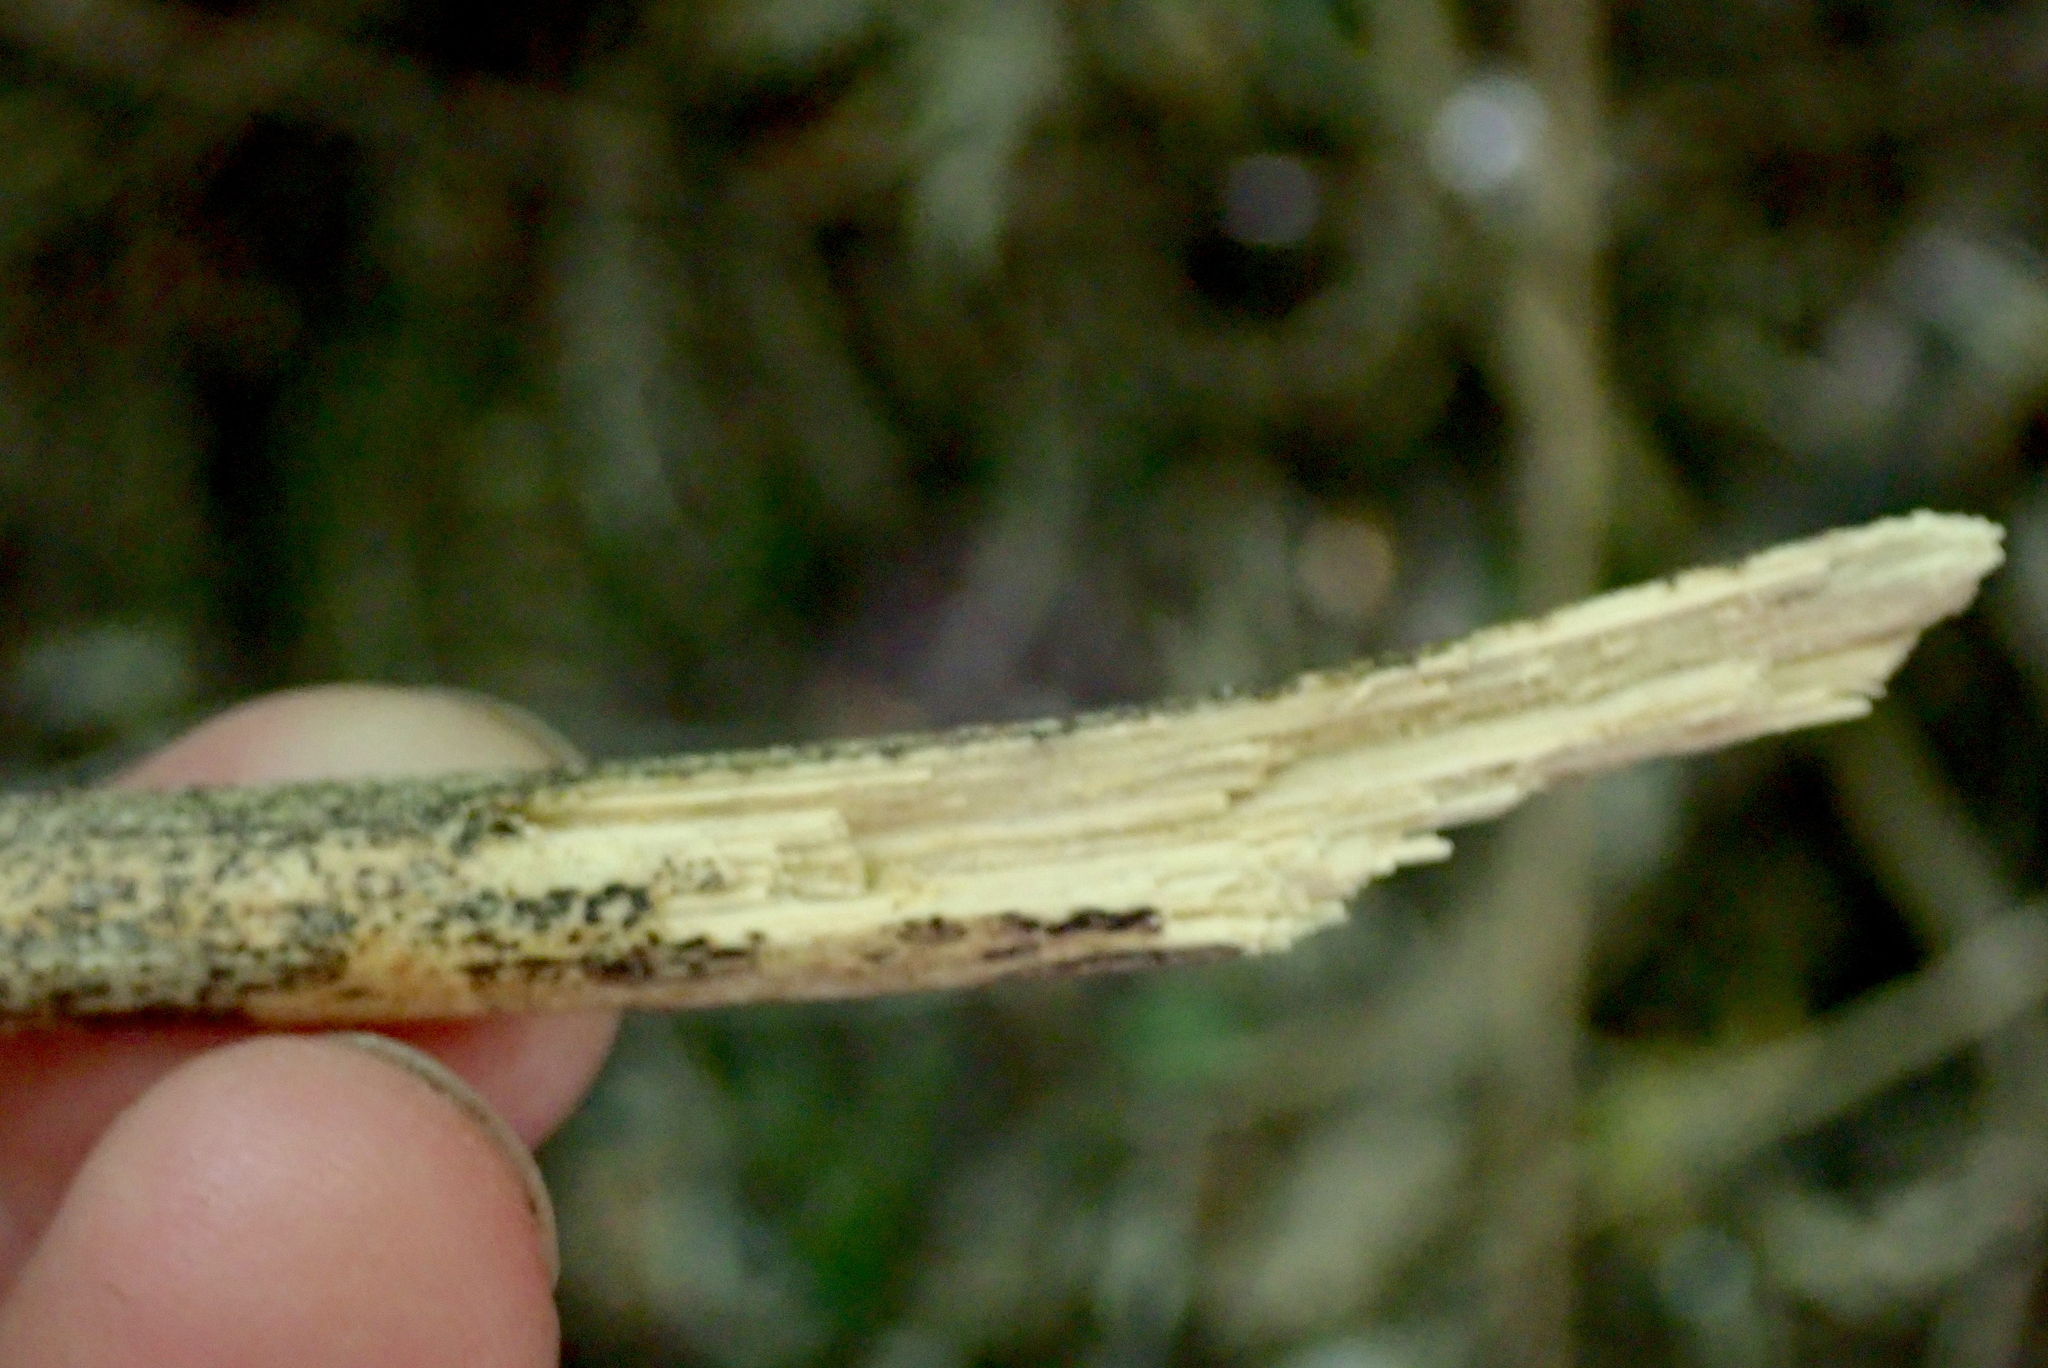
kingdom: Plantae
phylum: Tracheophyta
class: Liliopsida
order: Liliales
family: Ripogonaceae
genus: Ripogonum
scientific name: Ripogonum scandens
